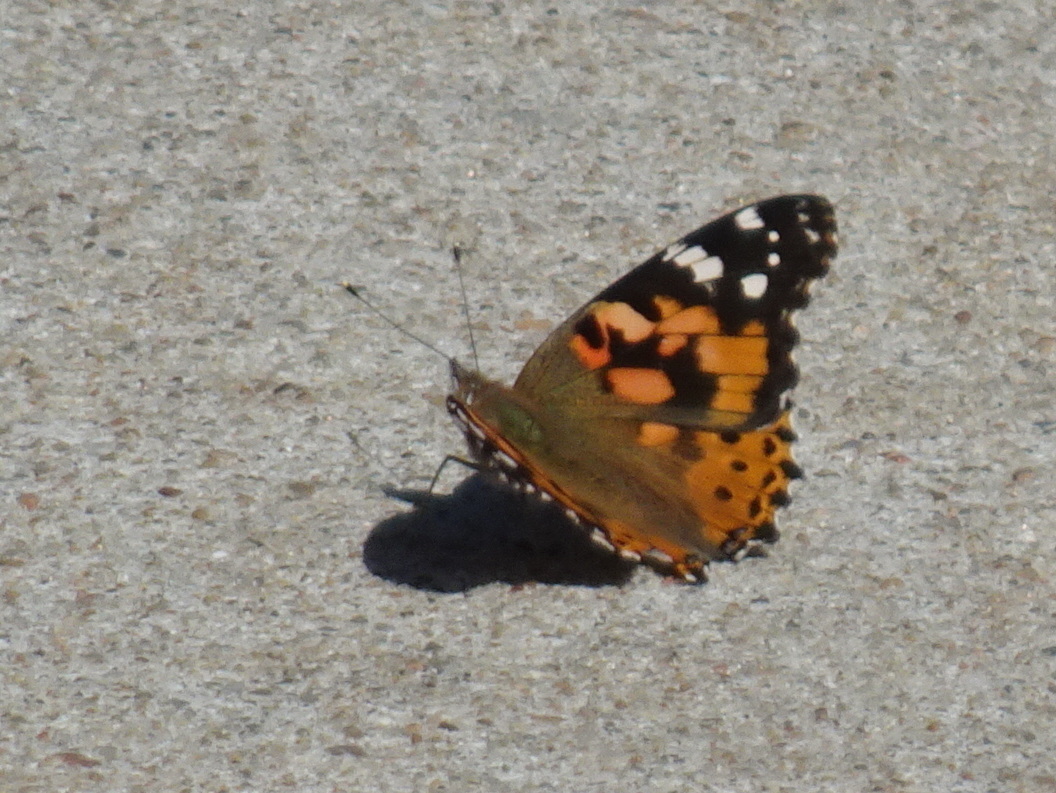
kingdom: Animalia
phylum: Arthropoda
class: Insecta
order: Lepidoptera
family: Nymphalidae
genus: Vanessa
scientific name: Vanessa cardui
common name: Painted lady
